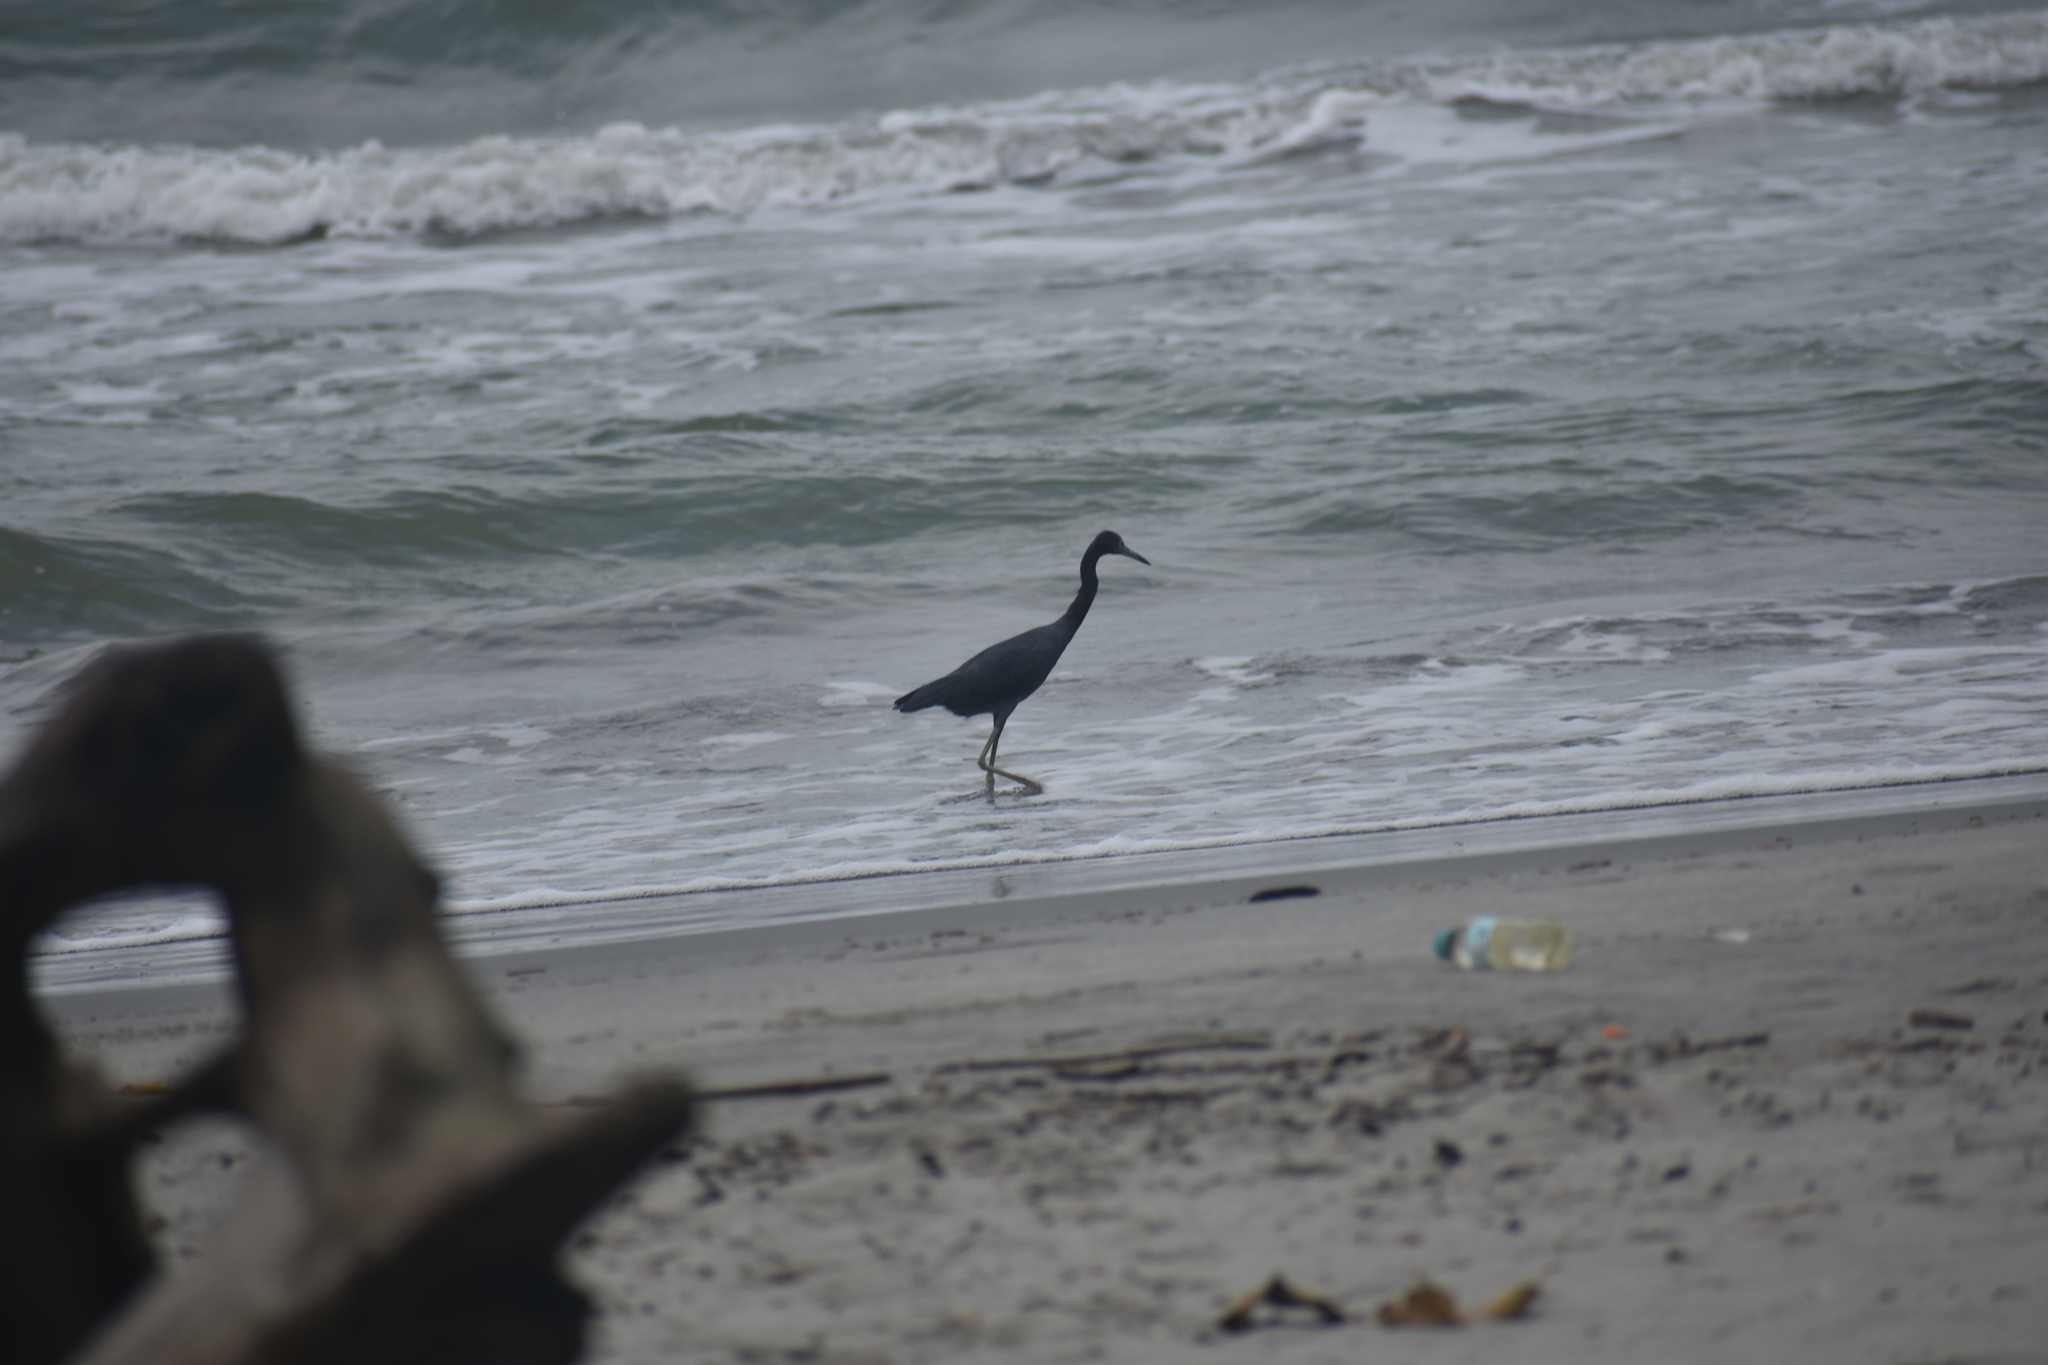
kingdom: Animalia
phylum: Chordata
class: Aves
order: Pelecaniformes
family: Ardeidae
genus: Egretta
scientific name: Egretta caerulea
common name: Little blue heron
